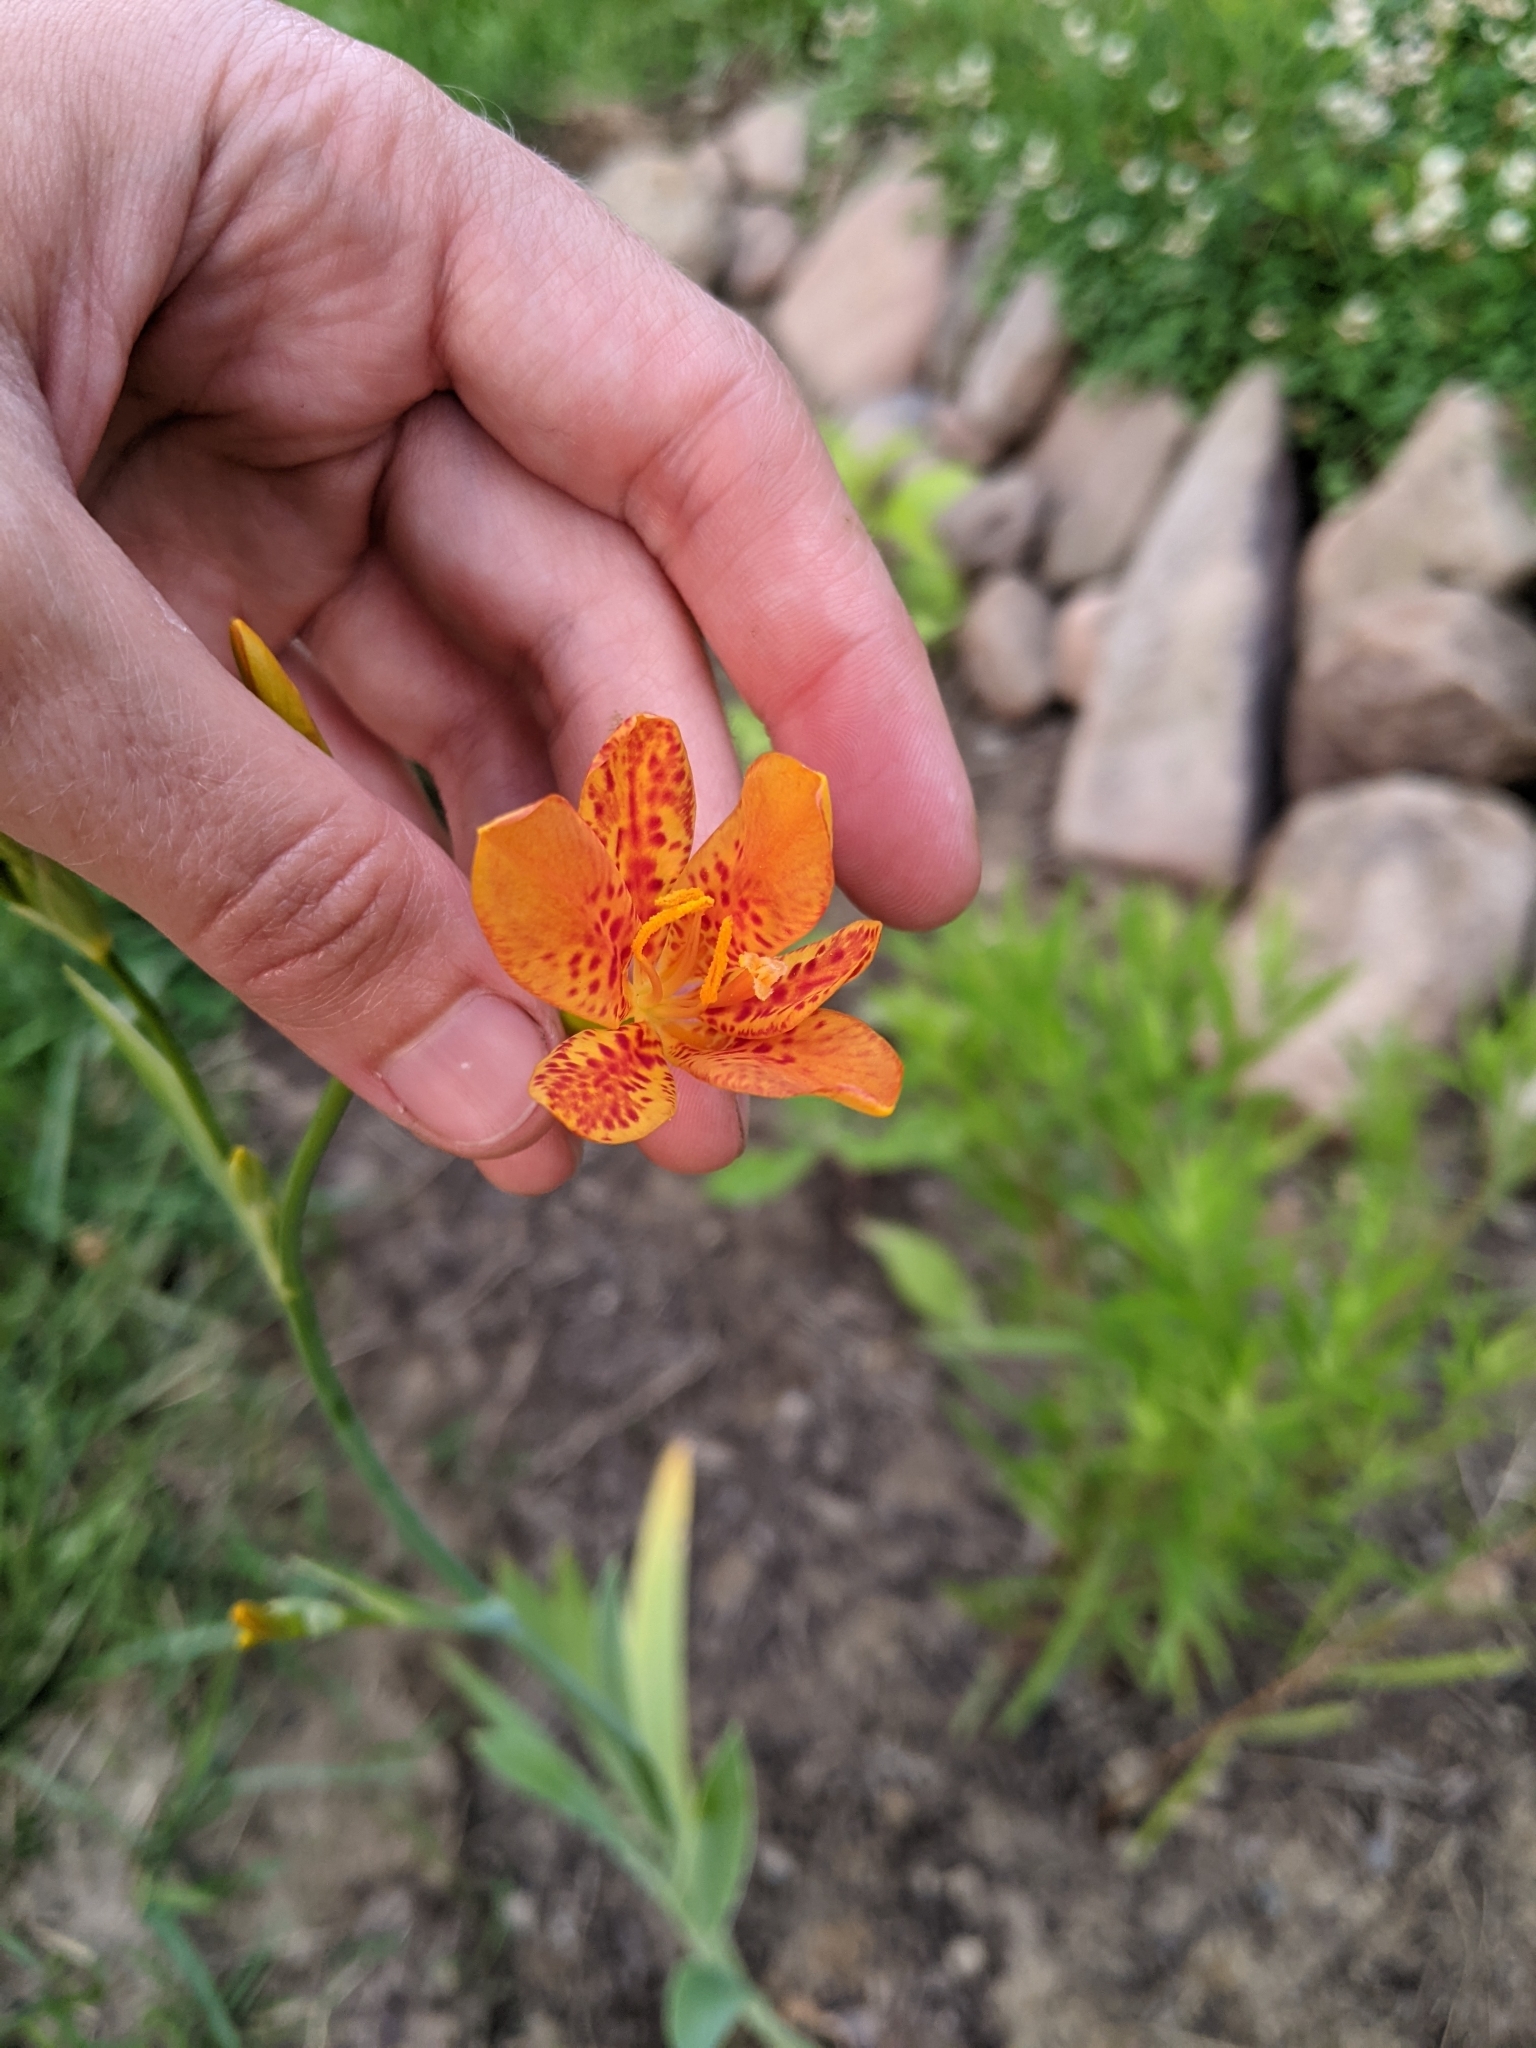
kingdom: Plantae
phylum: Tracheophyta
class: Liliopsida
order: Asparagales
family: Iridaceae
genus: Iris
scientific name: Iris domestica
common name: Belamcanda
